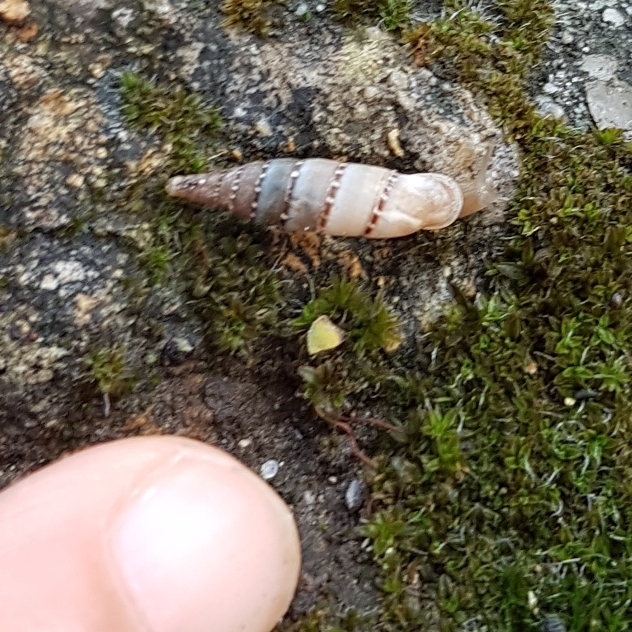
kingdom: Animalia
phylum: Mollusca
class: Gastropoda
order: Stylommatophora
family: Clausiliidae
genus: Papillifera
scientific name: Papillifera papillaris
